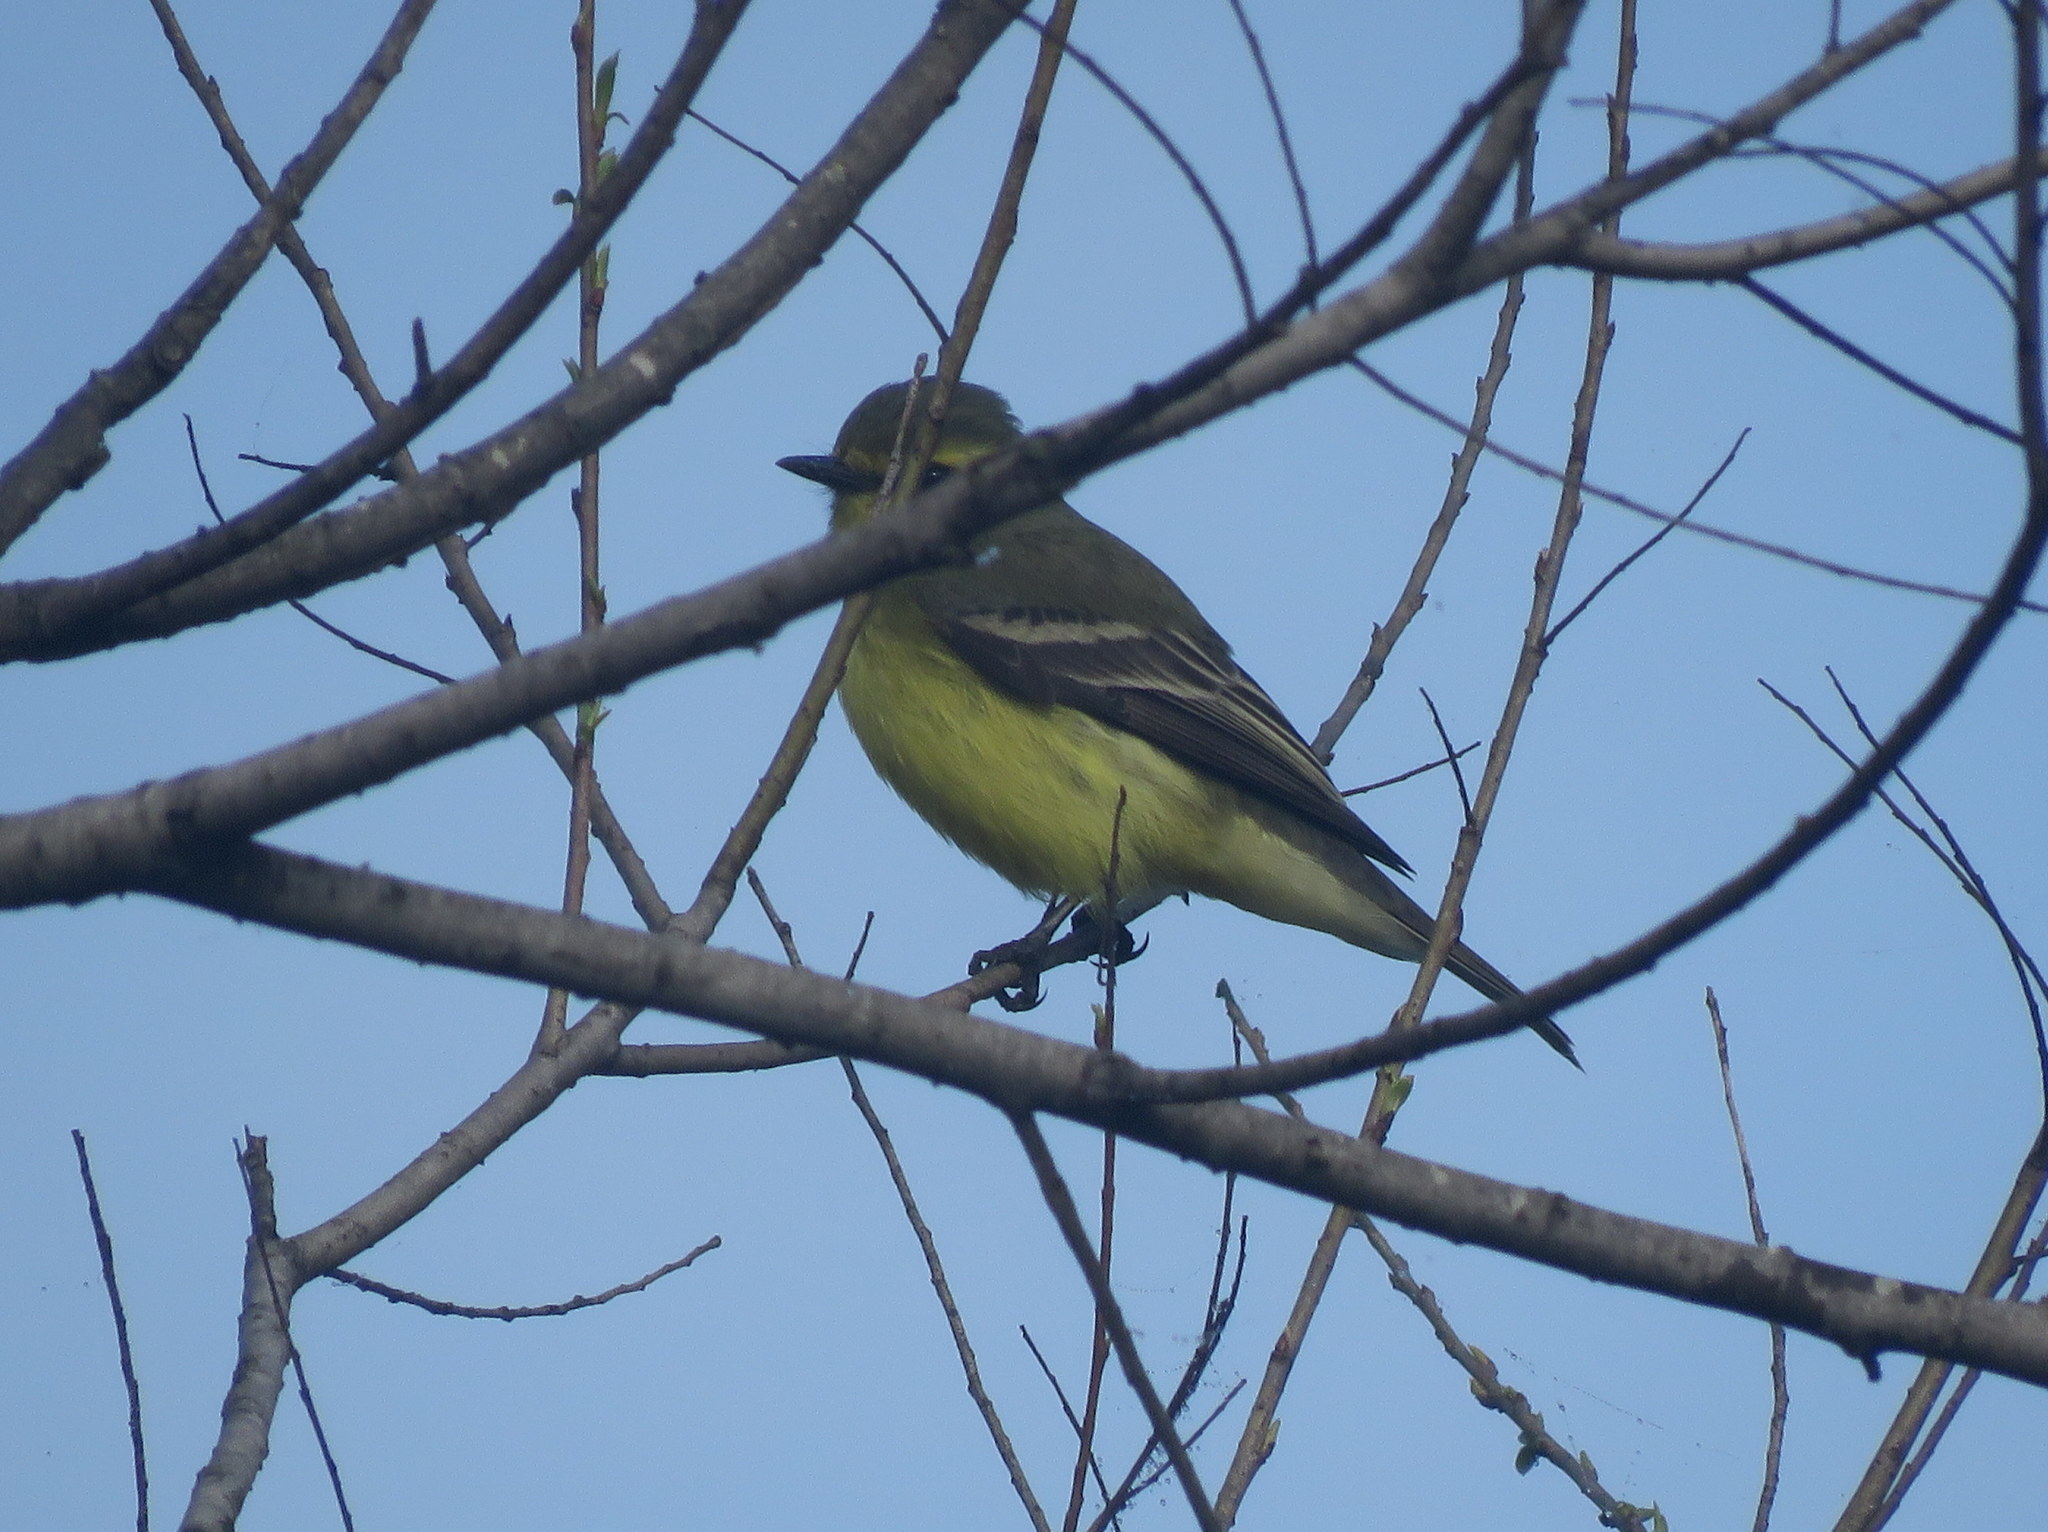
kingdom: Animalia
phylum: Chordata
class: Aves
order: Passeriformes
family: Tyrannidae
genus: Satrapa
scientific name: Satrapa icterophrys
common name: Yellow-browed tyrant
